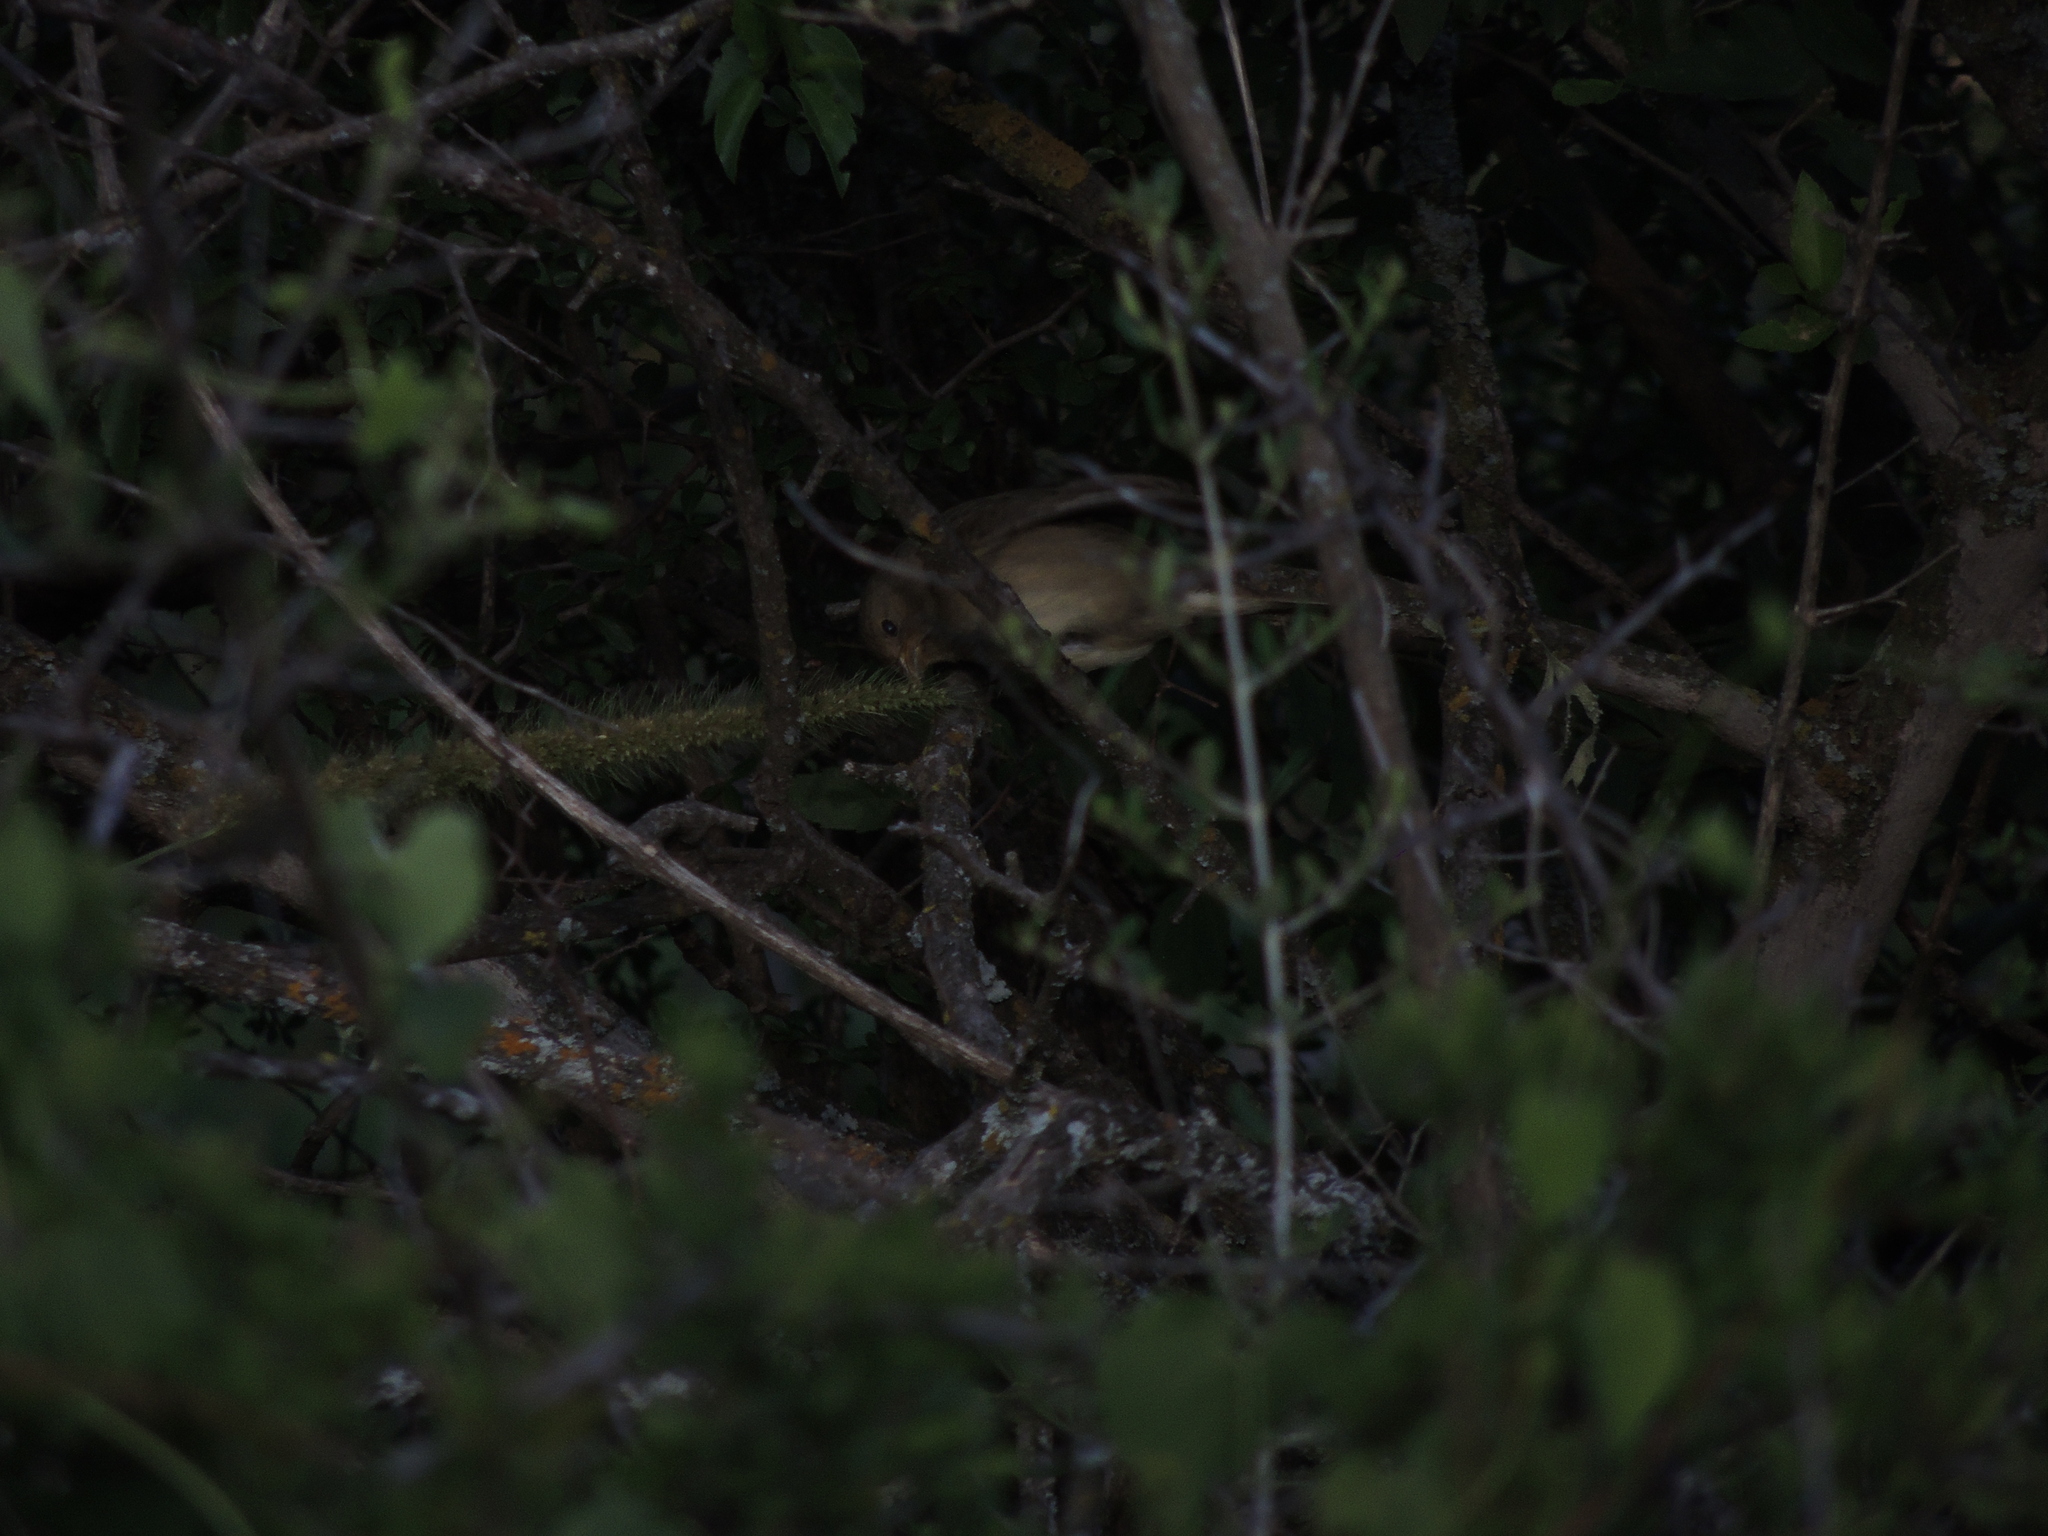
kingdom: Animalia
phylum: Chordata
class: Aves
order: Passeriformes
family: Thraupidae
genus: Sporophila
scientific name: Sporophila caerulescens
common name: Double-collared seedeater
